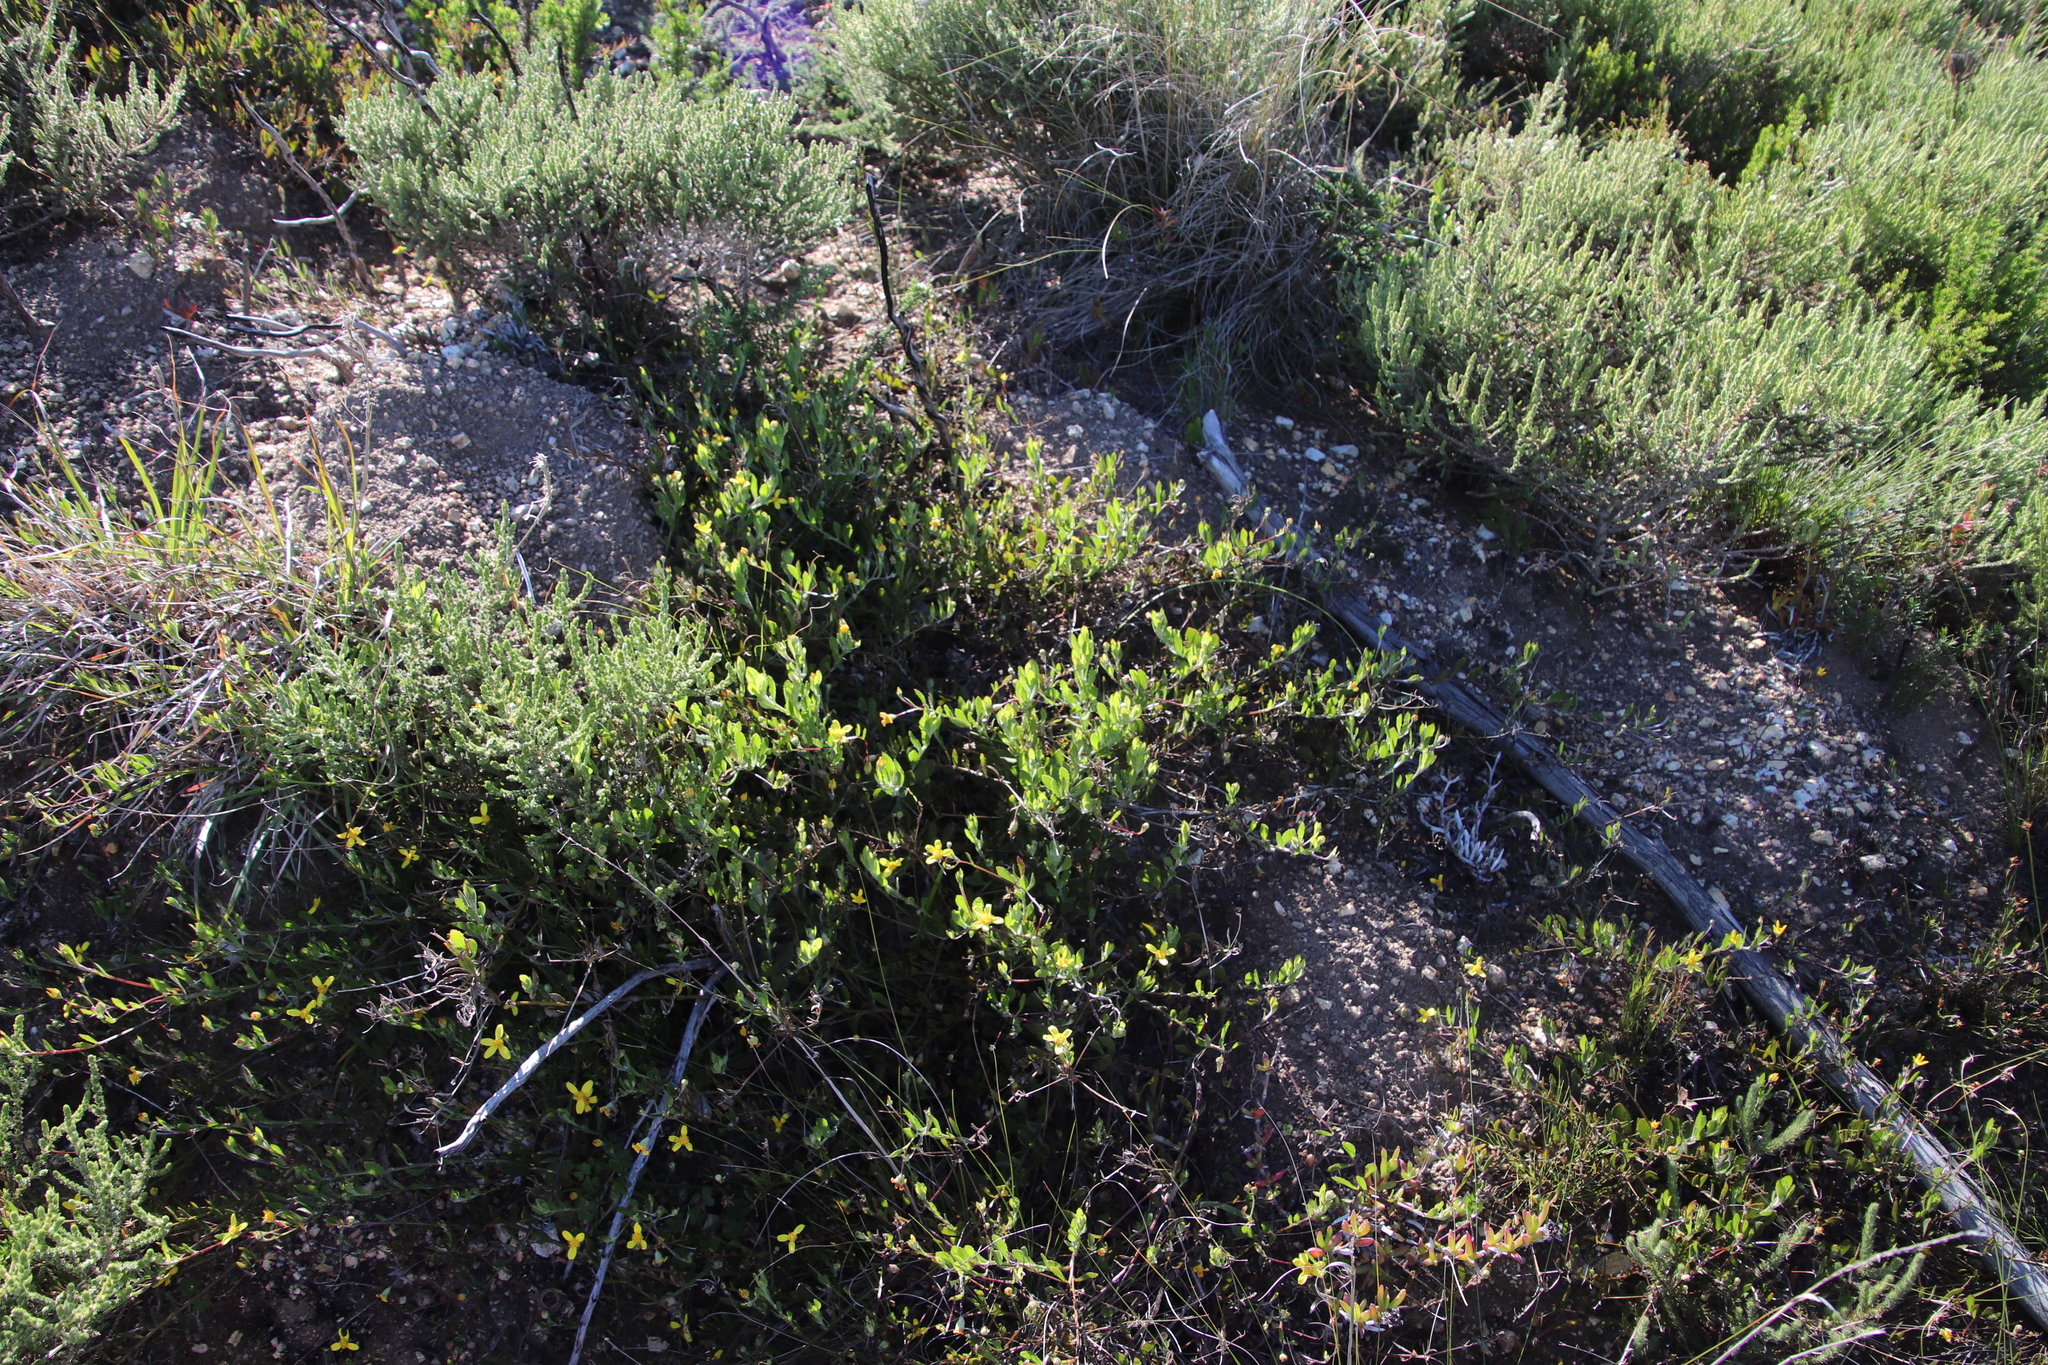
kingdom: Plantae
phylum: Tracheophyta
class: Magnoliopsida
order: Asterales
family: Asteraceae
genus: Osteospermum
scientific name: Osteospermum ciliatum
